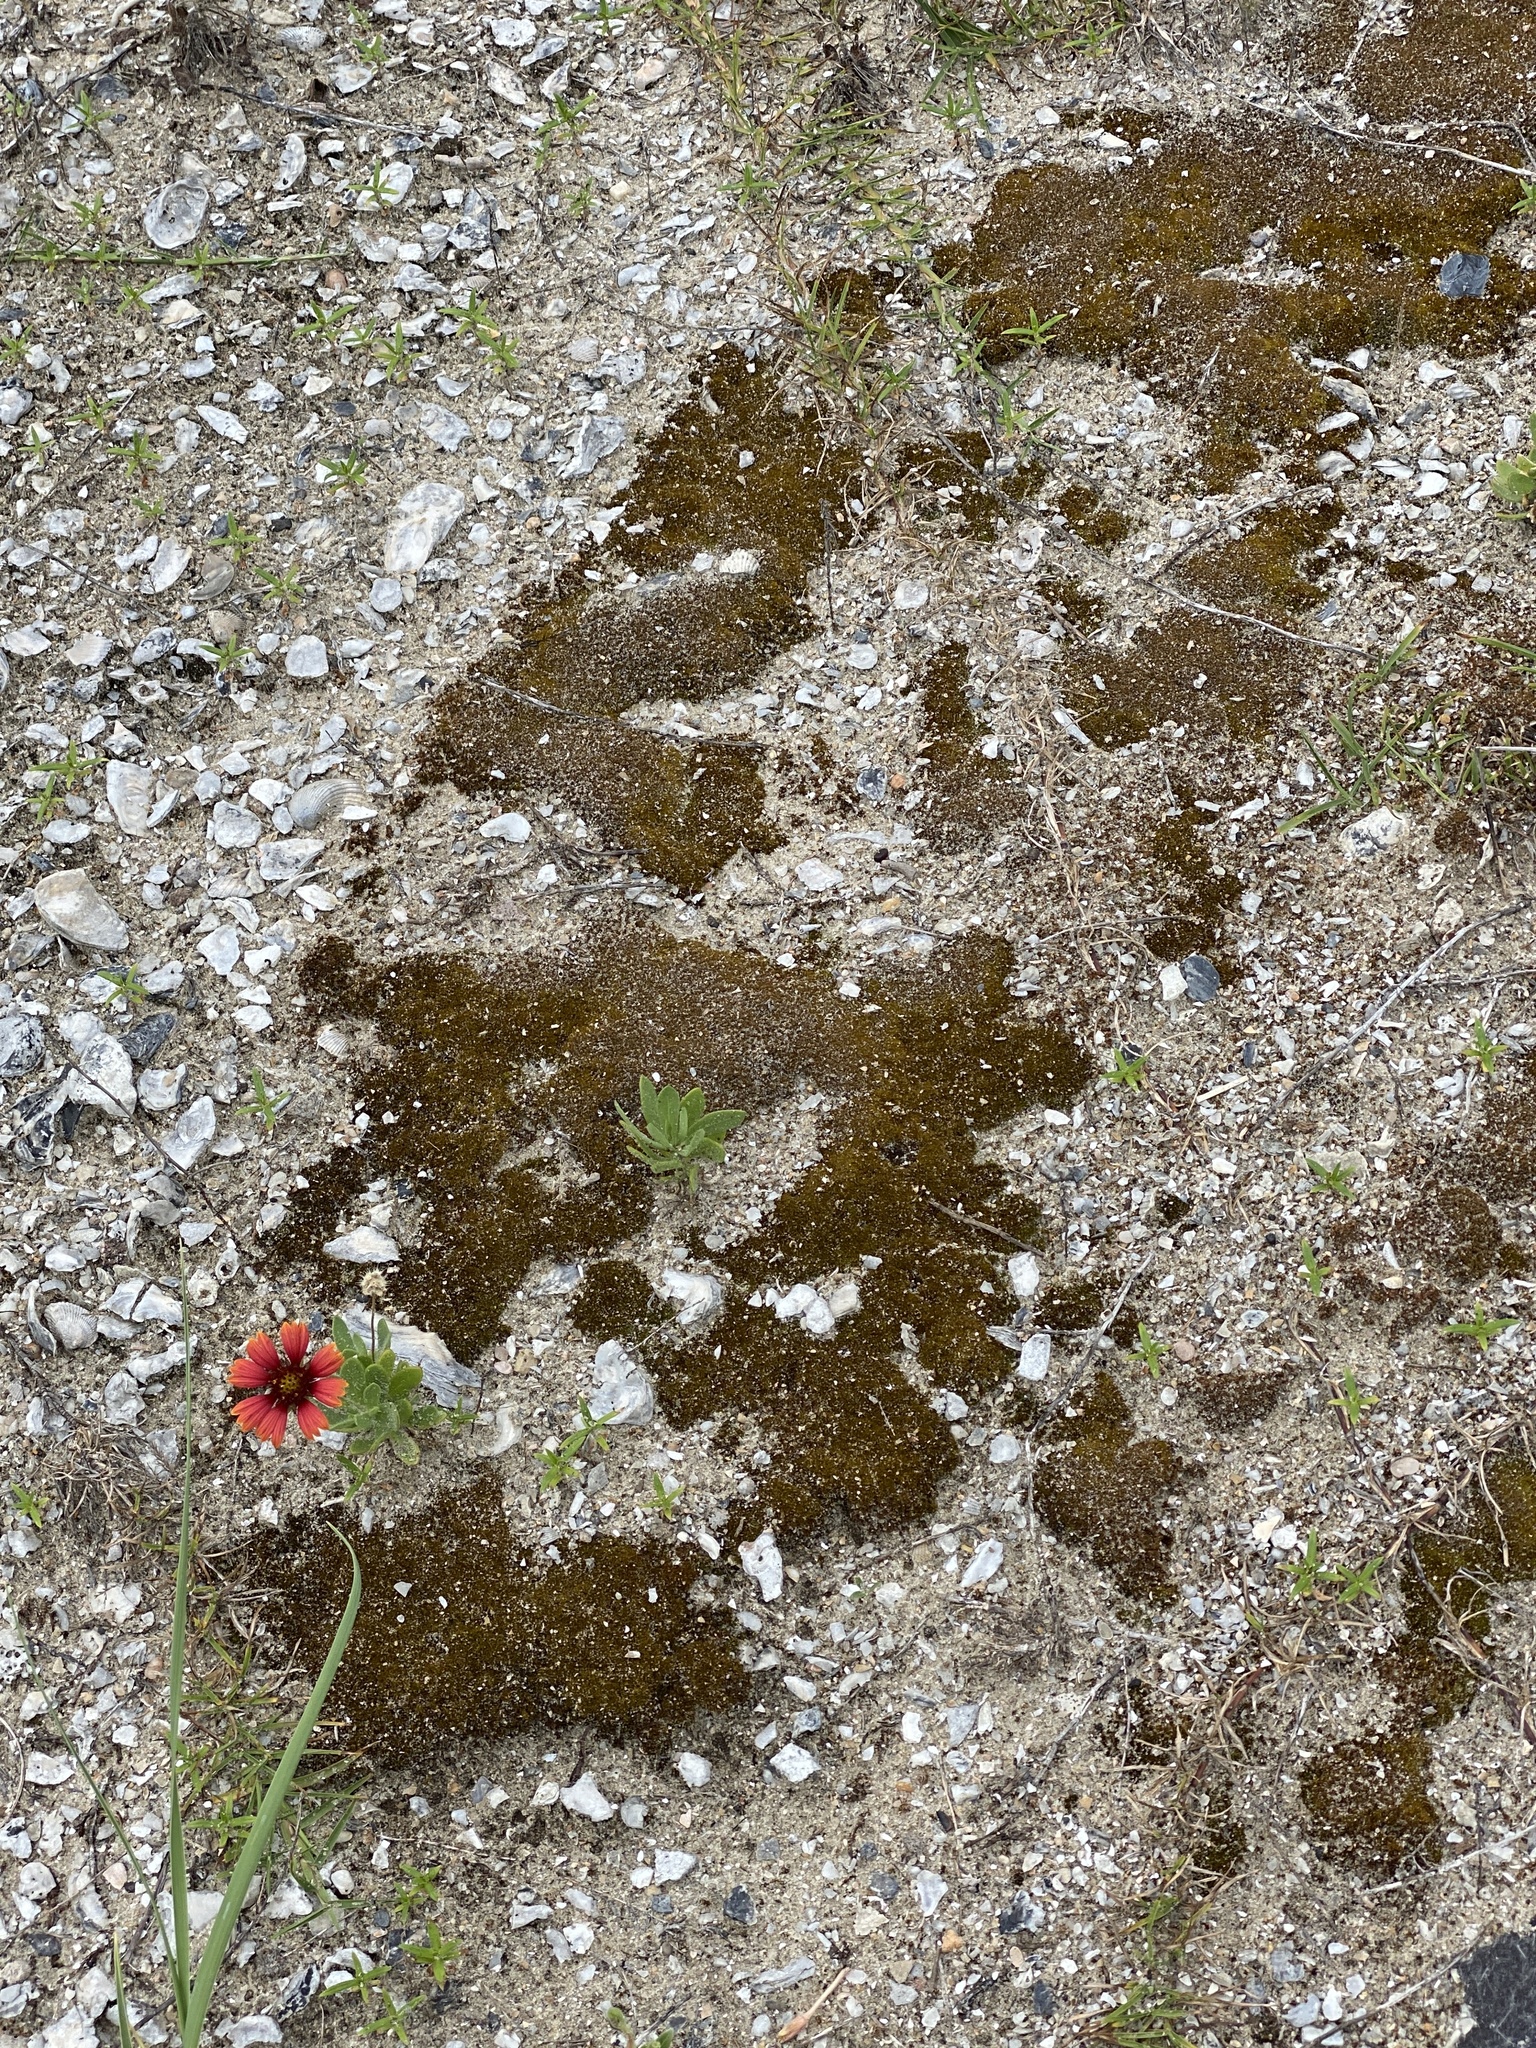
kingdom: Plantae
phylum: Bryophyta
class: Bryopsida
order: Pottiales
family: Pottiaceae
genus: Tortella
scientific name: Tortella flavovirens
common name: Arisaig crisp-moss
